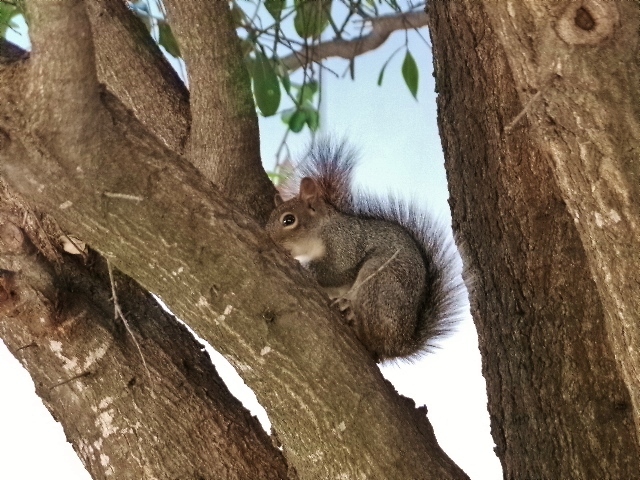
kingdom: Animalia
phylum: Chordata
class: Mammalia
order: Rodentia
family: Sciuridae
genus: Sciurus
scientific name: Sciurus alleni
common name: Allen's squirrel
